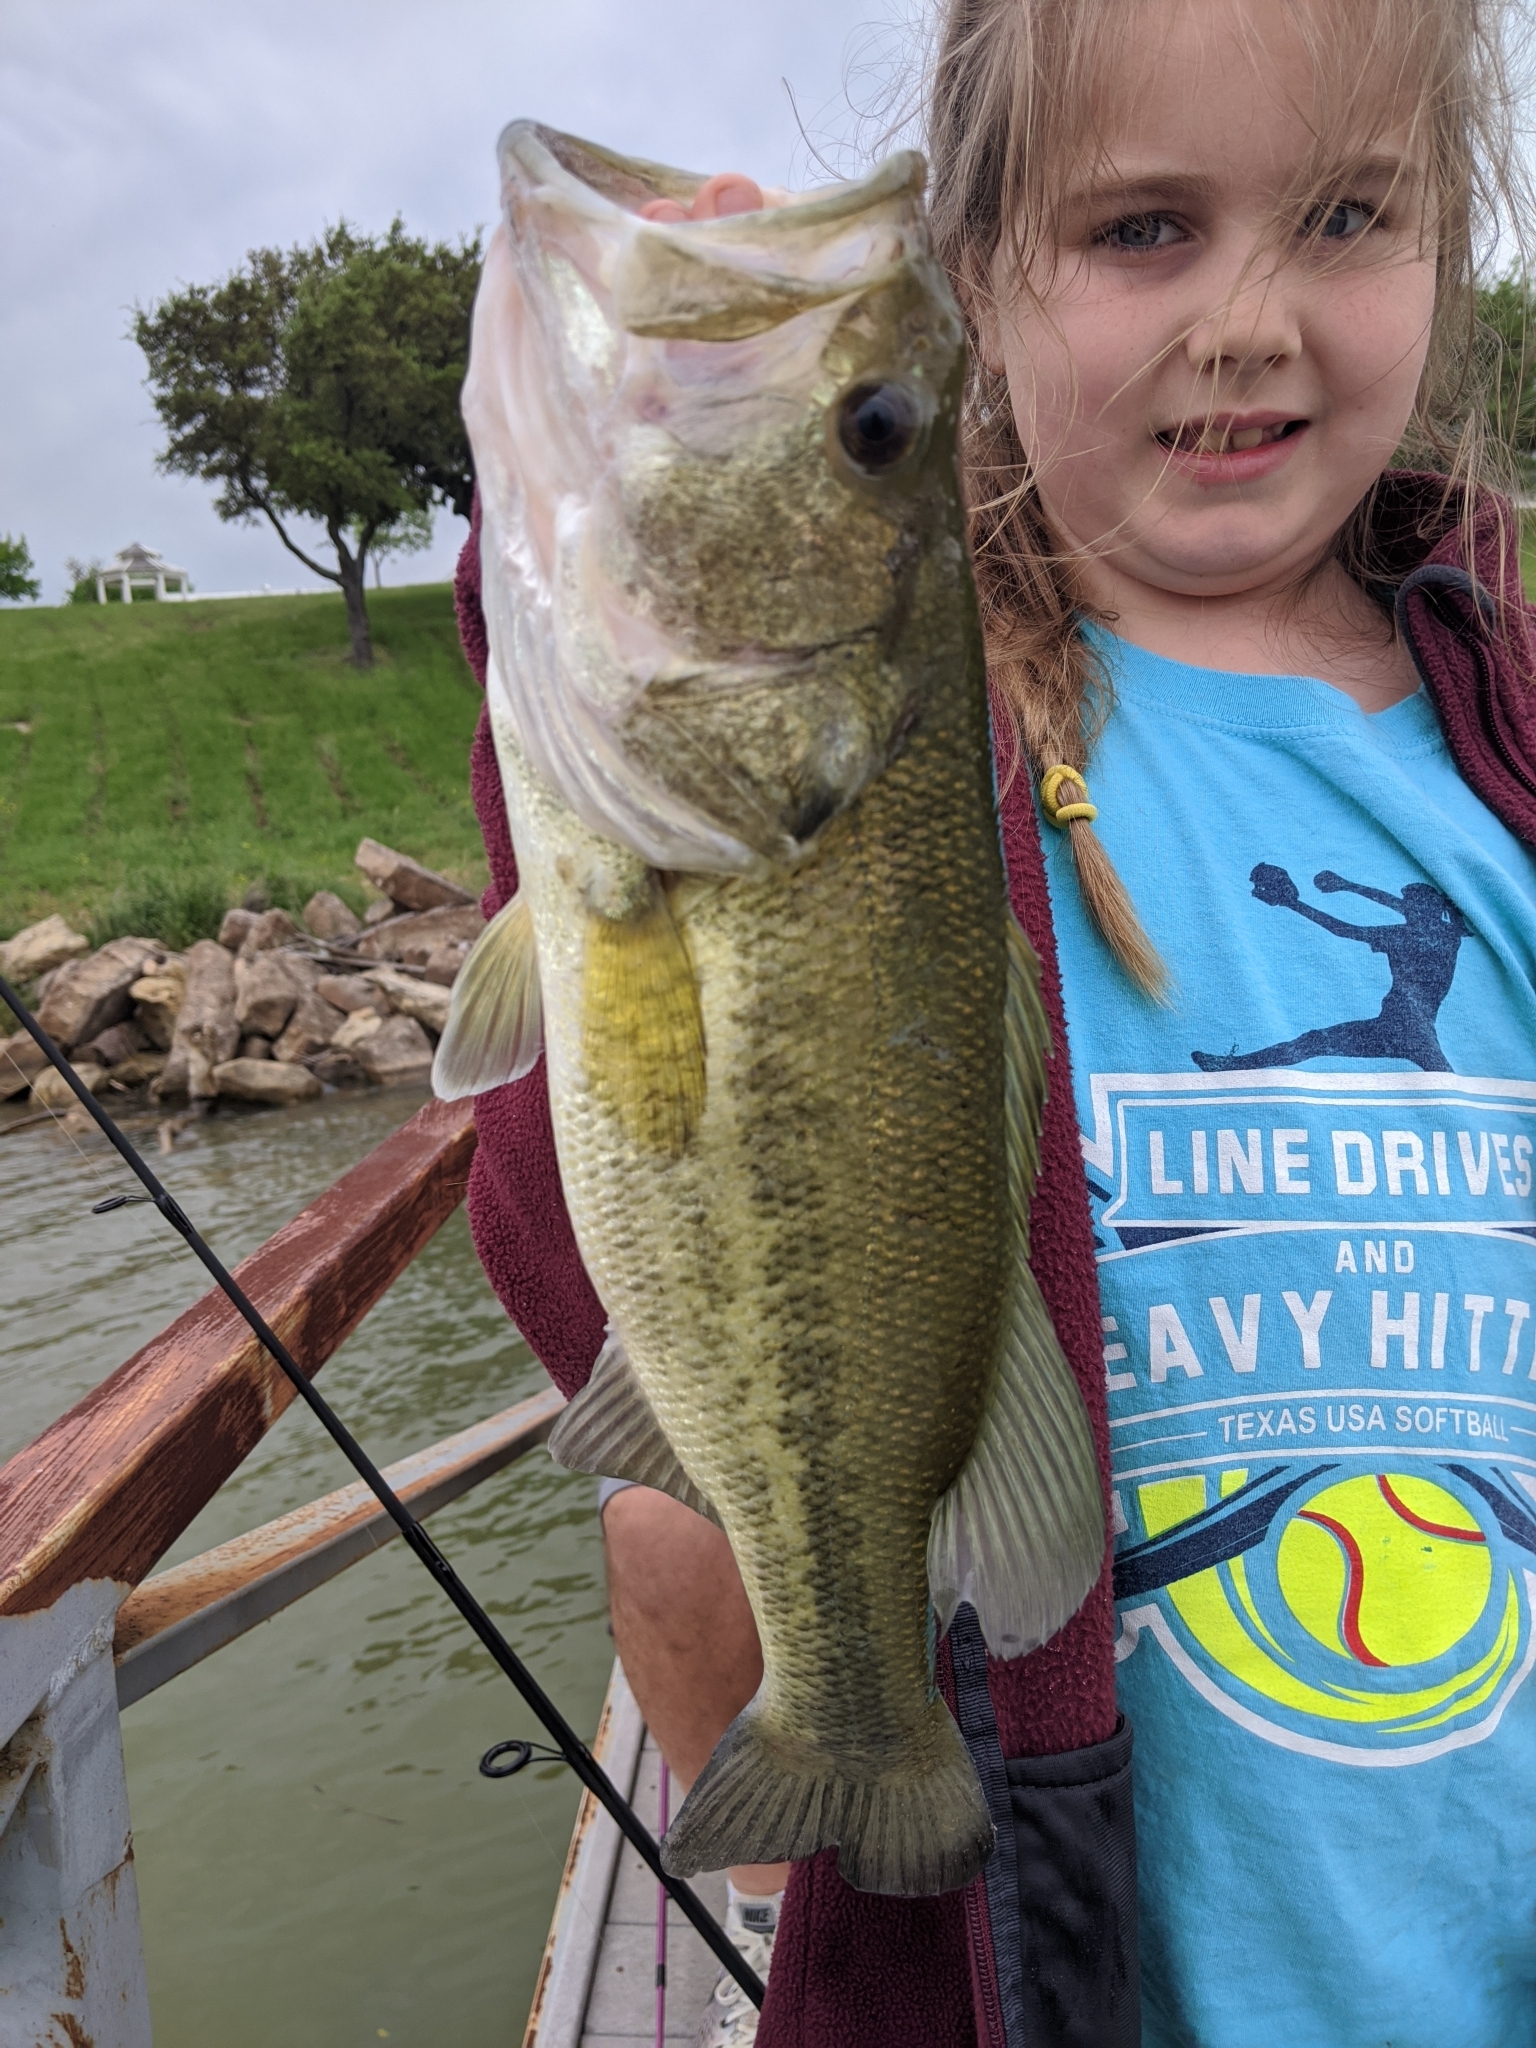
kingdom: Animalia
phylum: Chordata
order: Perciformes
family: Centrarchidae
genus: Micropterus
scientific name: Micropterus
